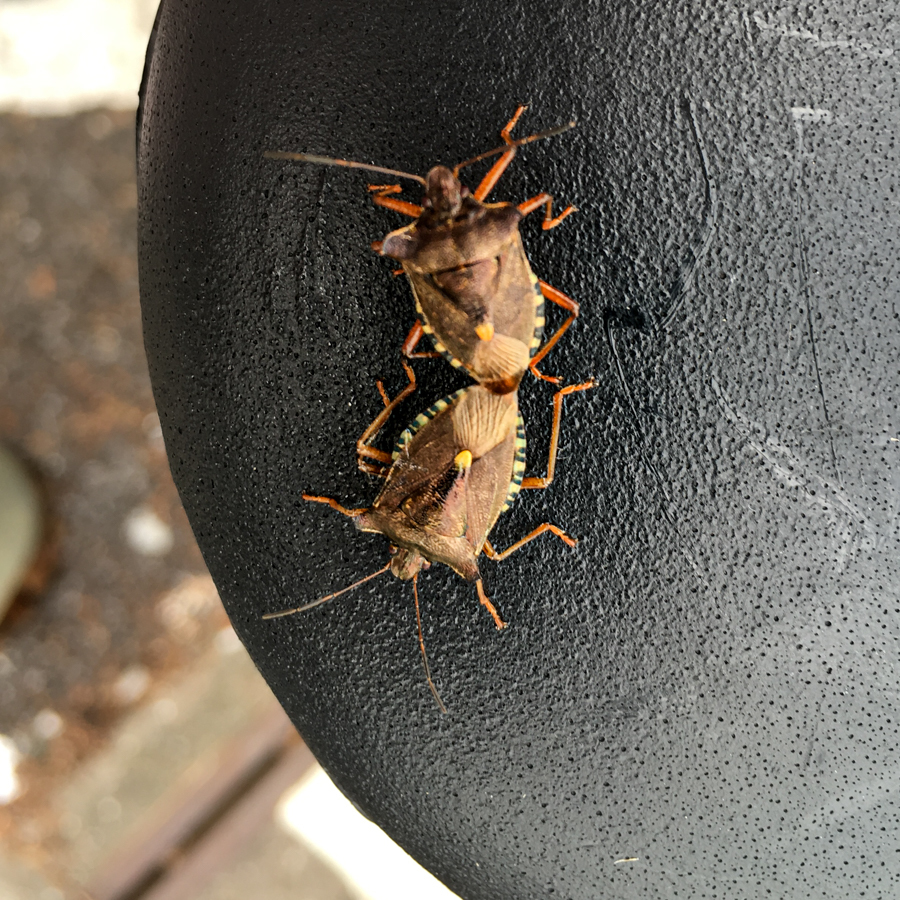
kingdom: Animalia
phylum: Arthropoda
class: Insecta
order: Hemiptera
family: Pentatomidae
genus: Pentatoma
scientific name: Pentatoma rufipes
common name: Forest bug
